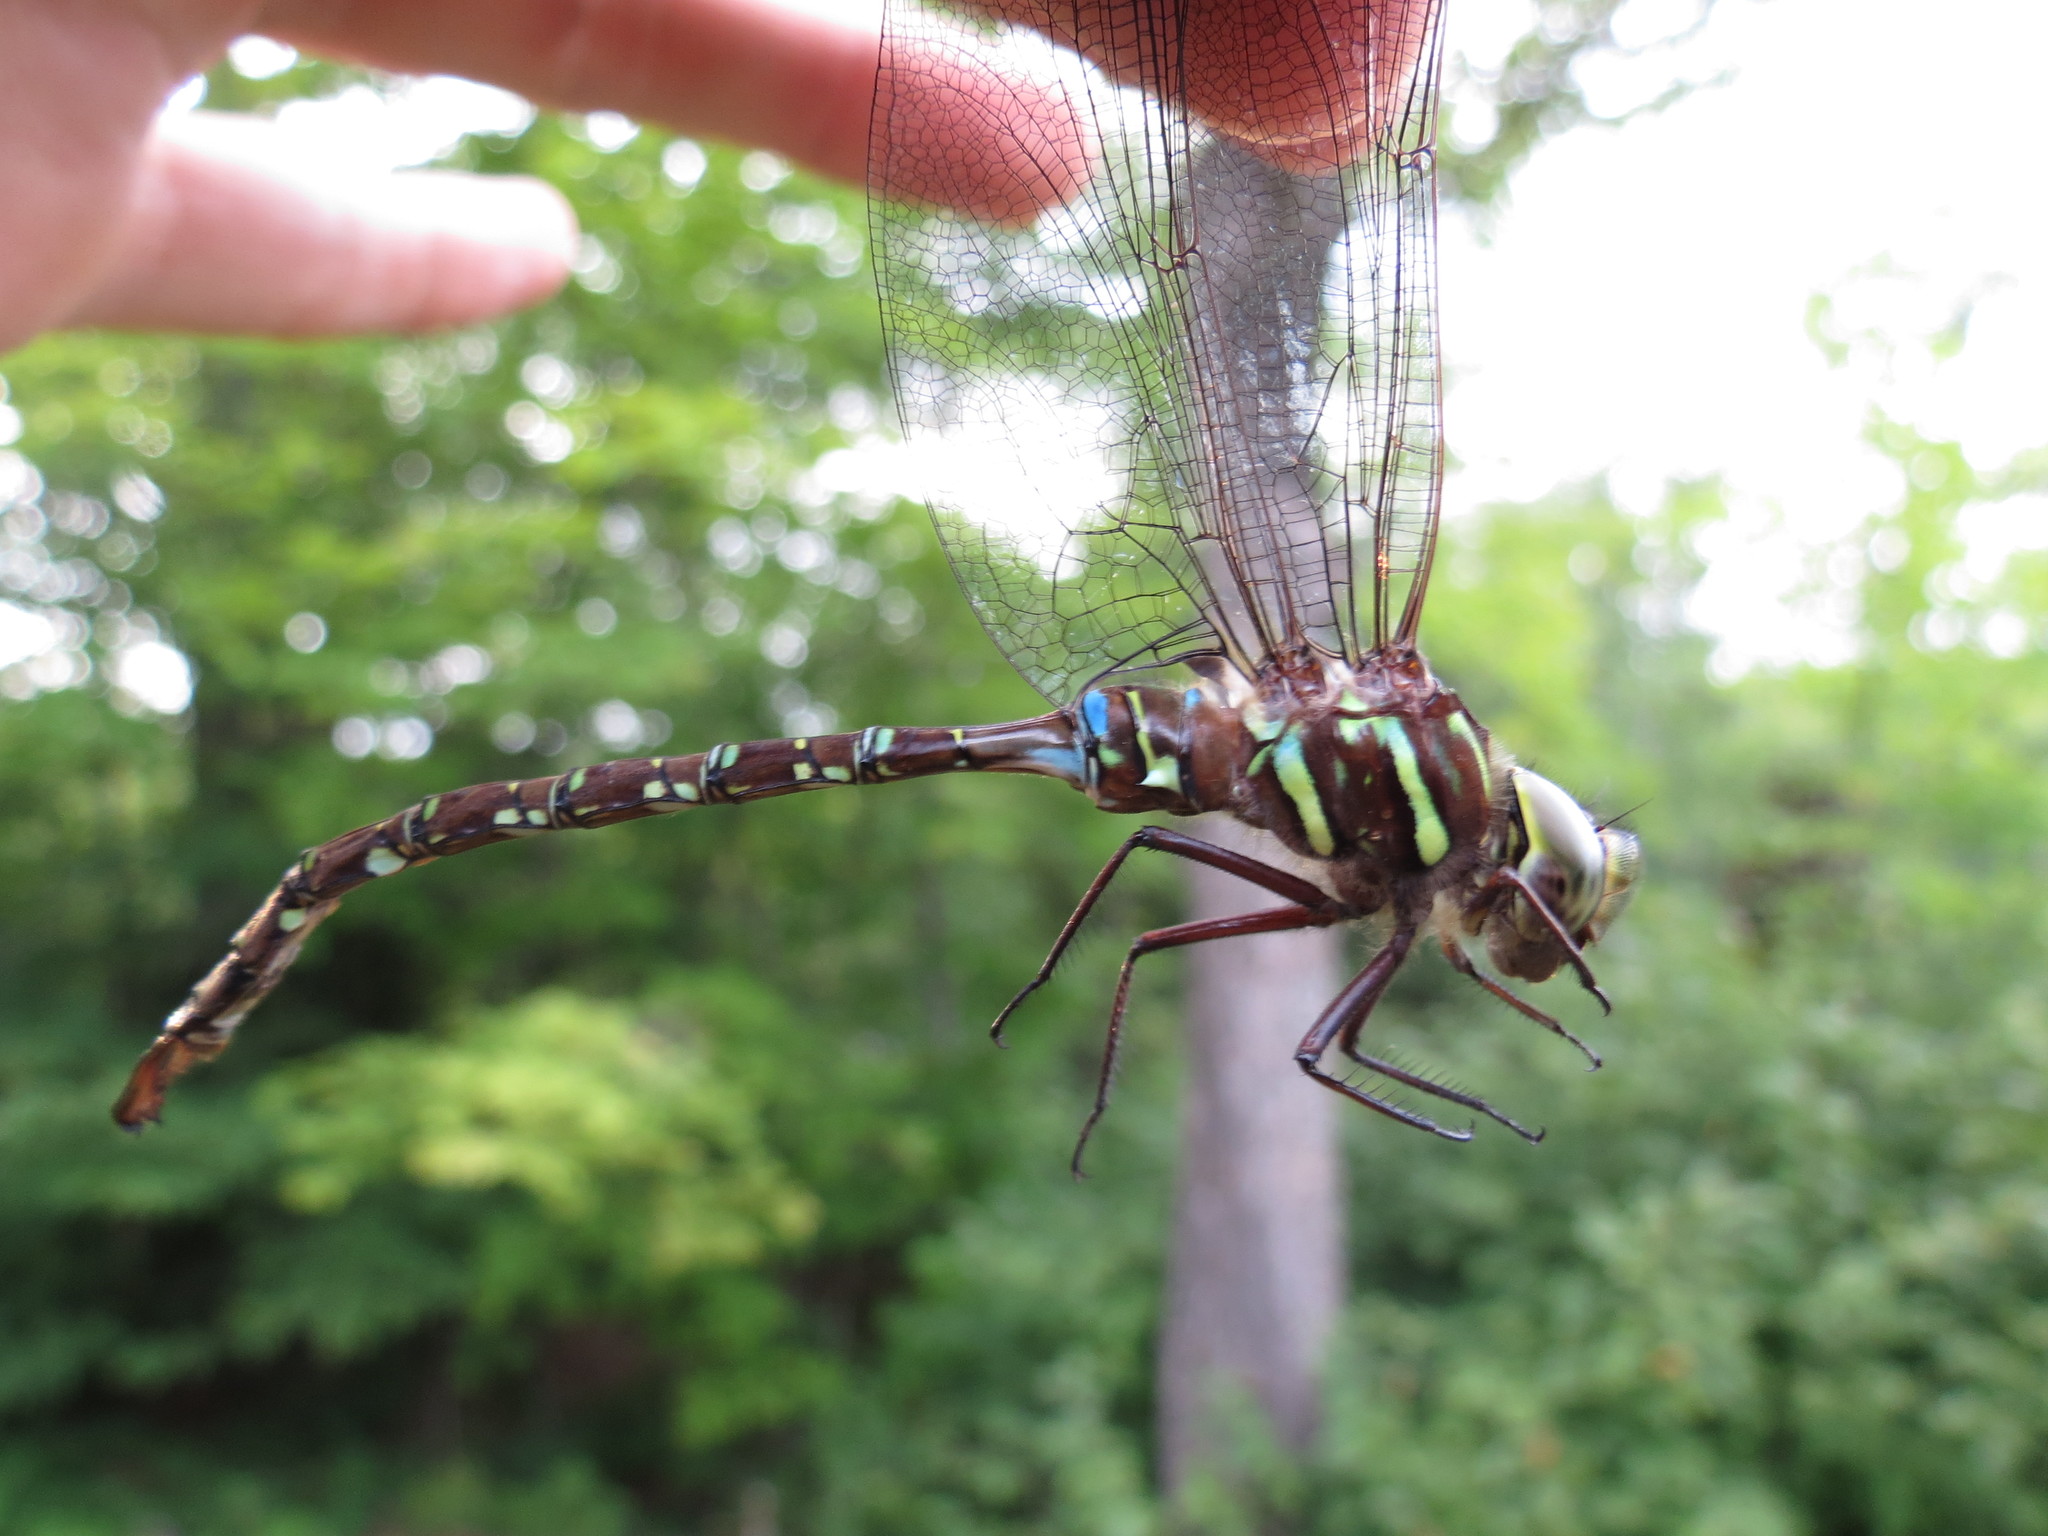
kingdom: Animalia
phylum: Arthropoda
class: Insecta
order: Odonata
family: Aeshnidae
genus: Aeshna
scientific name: Aeshna umbrosa
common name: Shadow darner
